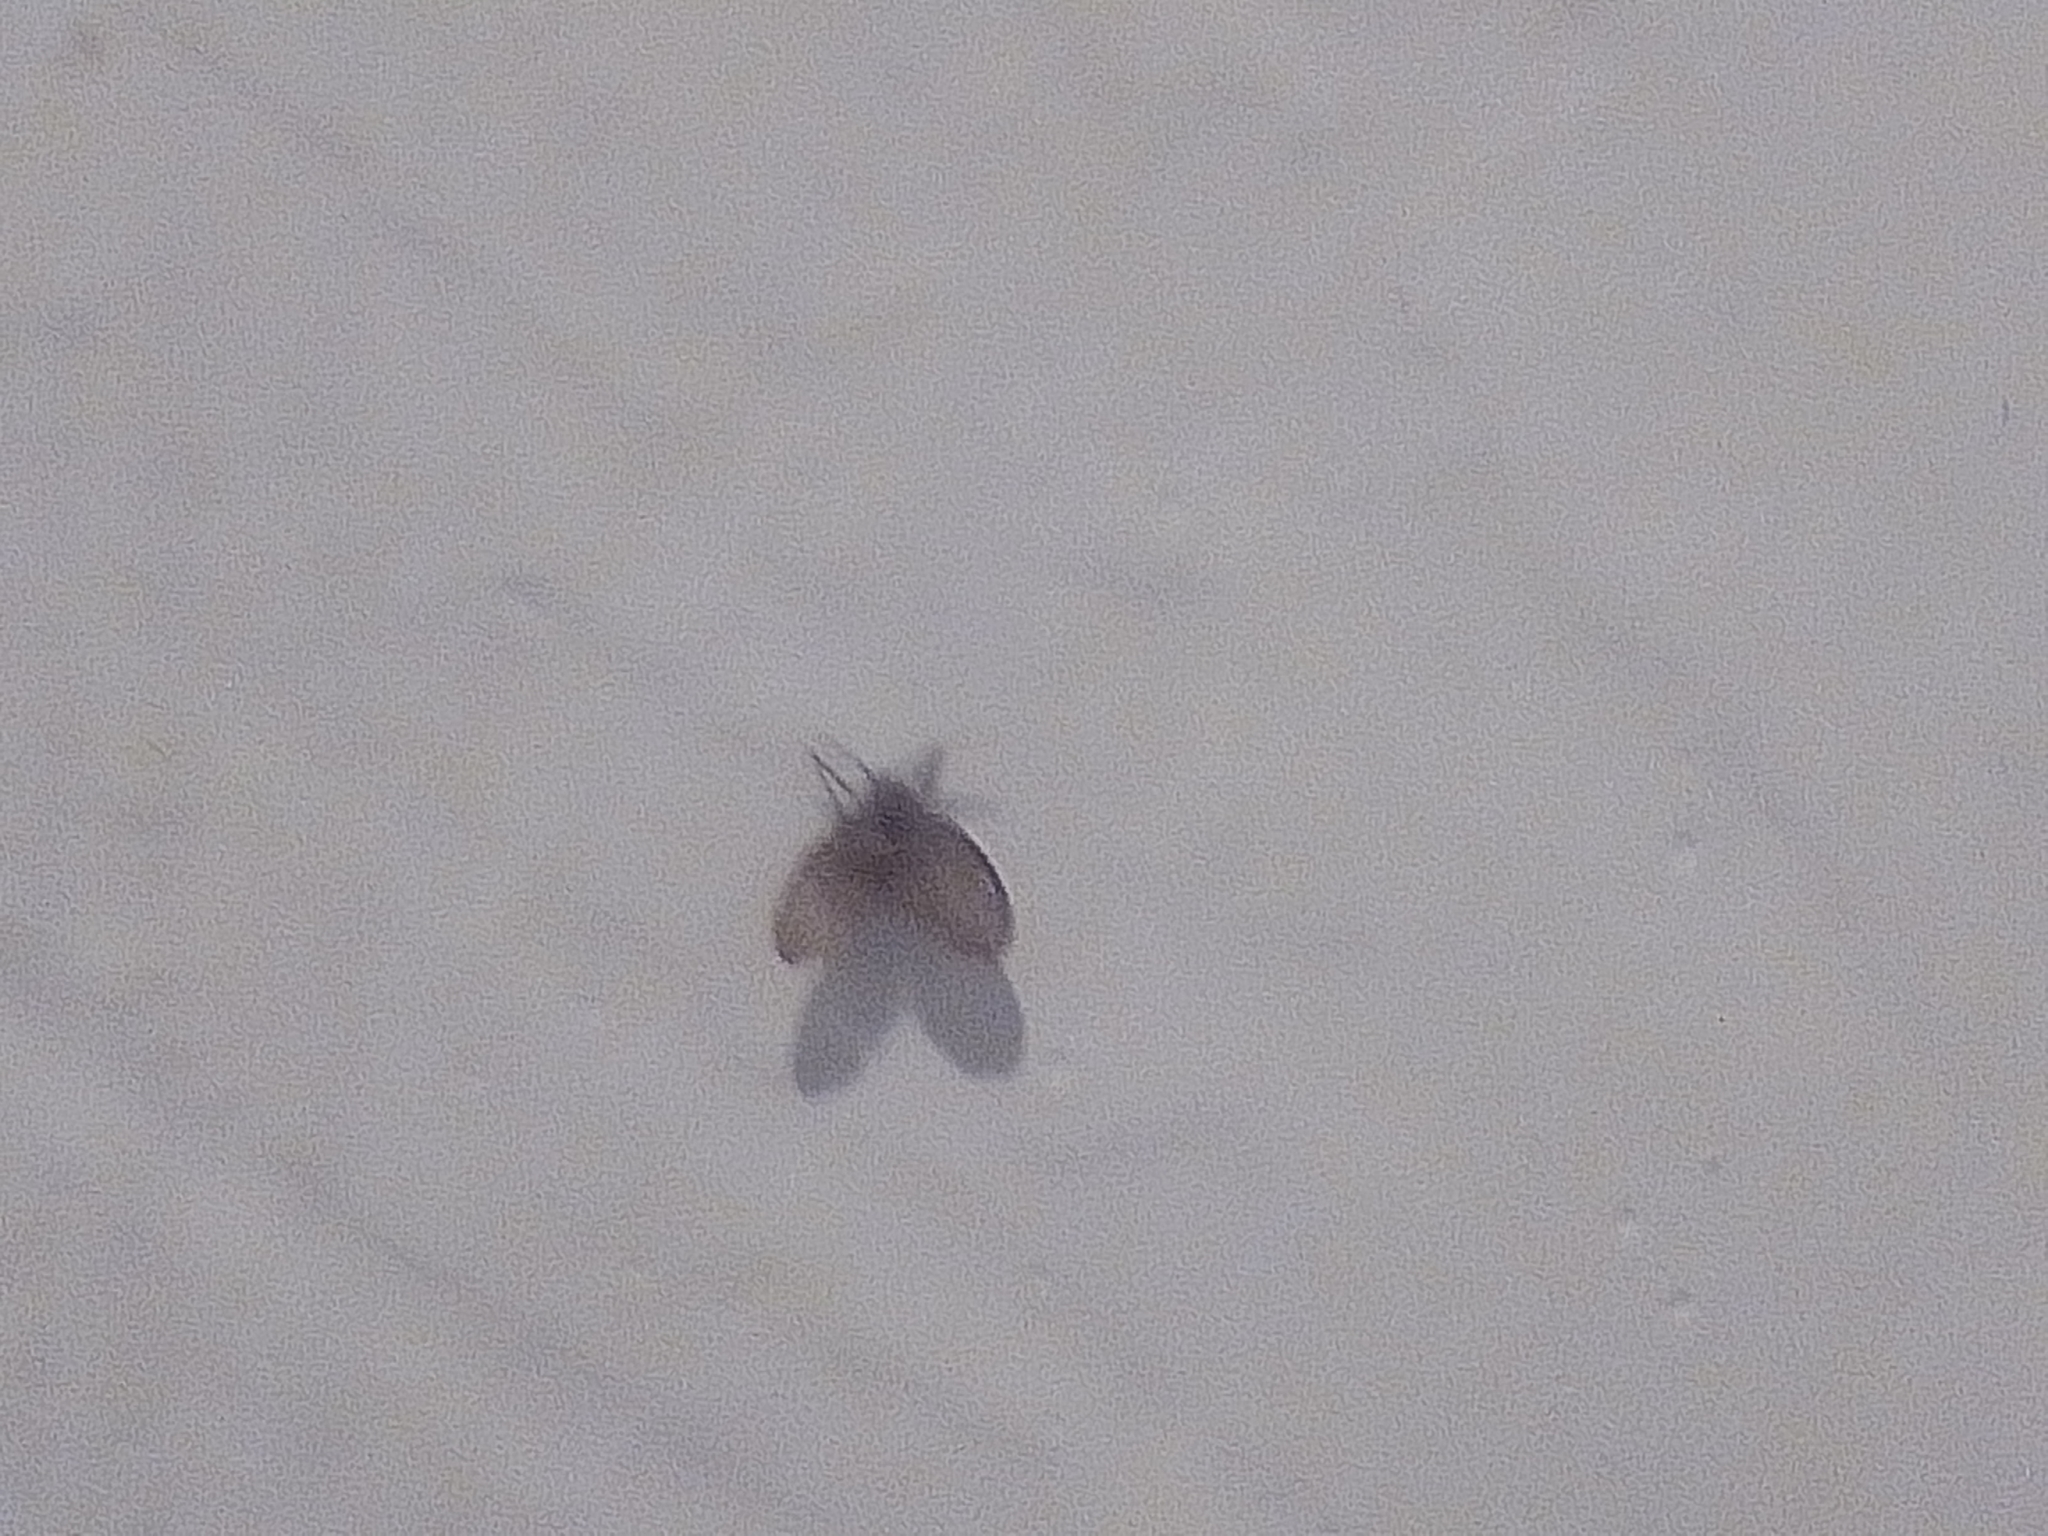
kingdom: Animalia
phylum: Arthropoda
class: Insecta
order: Diptera
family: Psychodidae
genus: Clogmia
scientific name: Clogmia albipunctatus
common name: White-spotted moth fly
